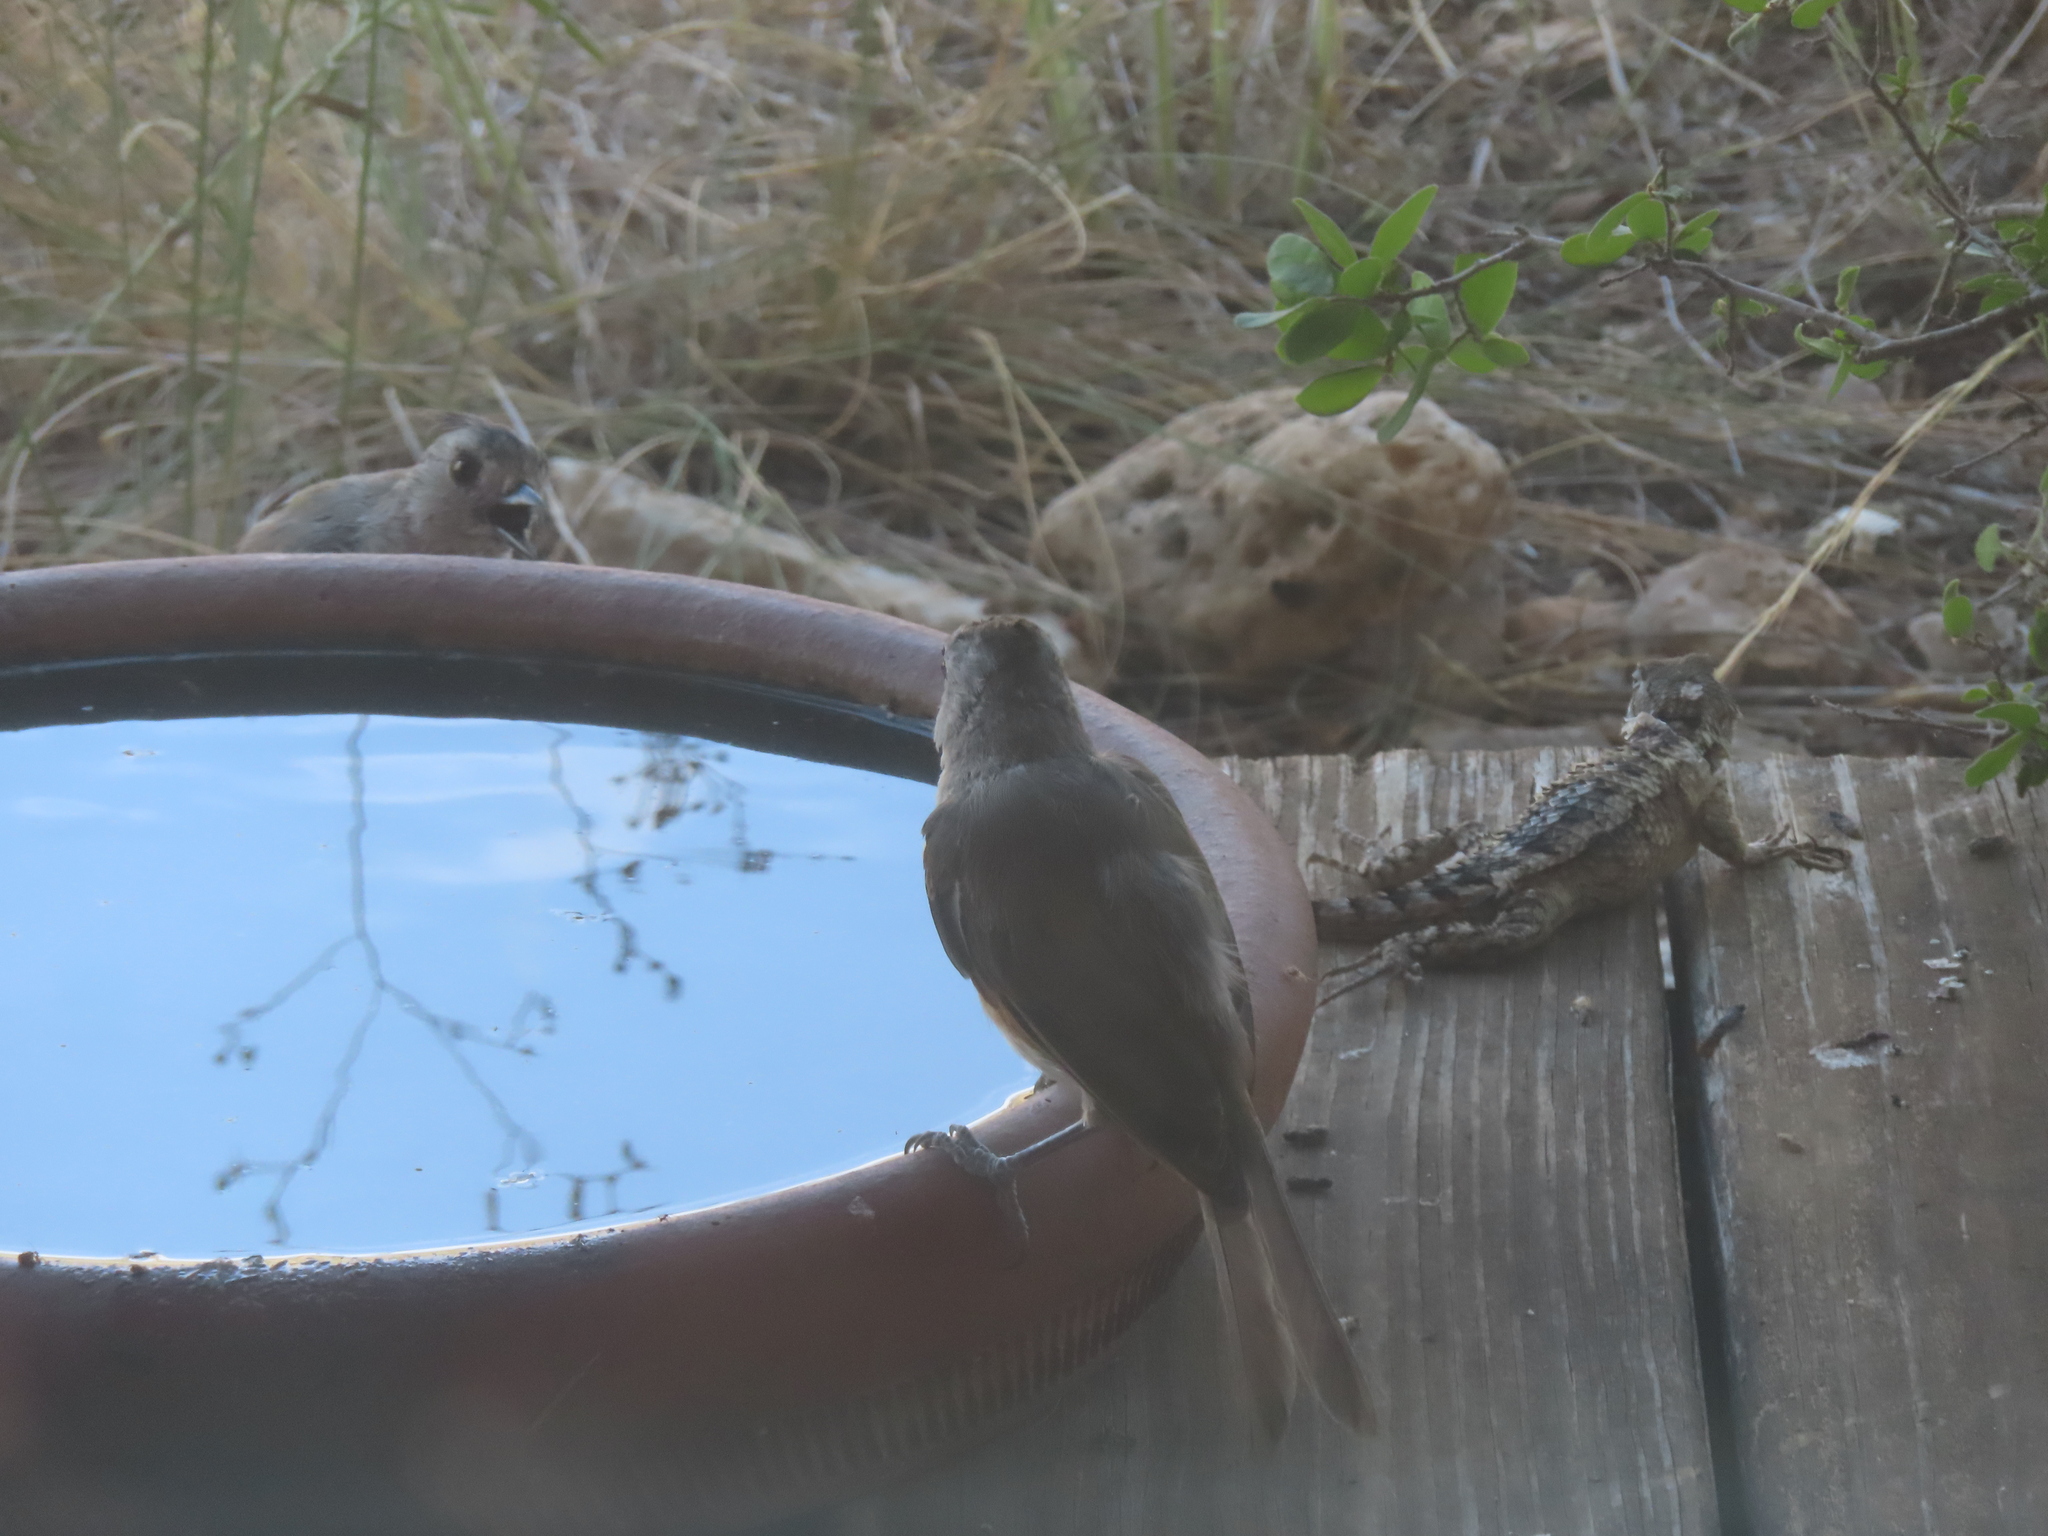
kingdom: Animalia
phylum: Chordata
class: Squamata
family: Phrynosomatidae
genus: Sceloporus
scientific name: Sceloporus olivaceus
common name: Texas spiny lizard
